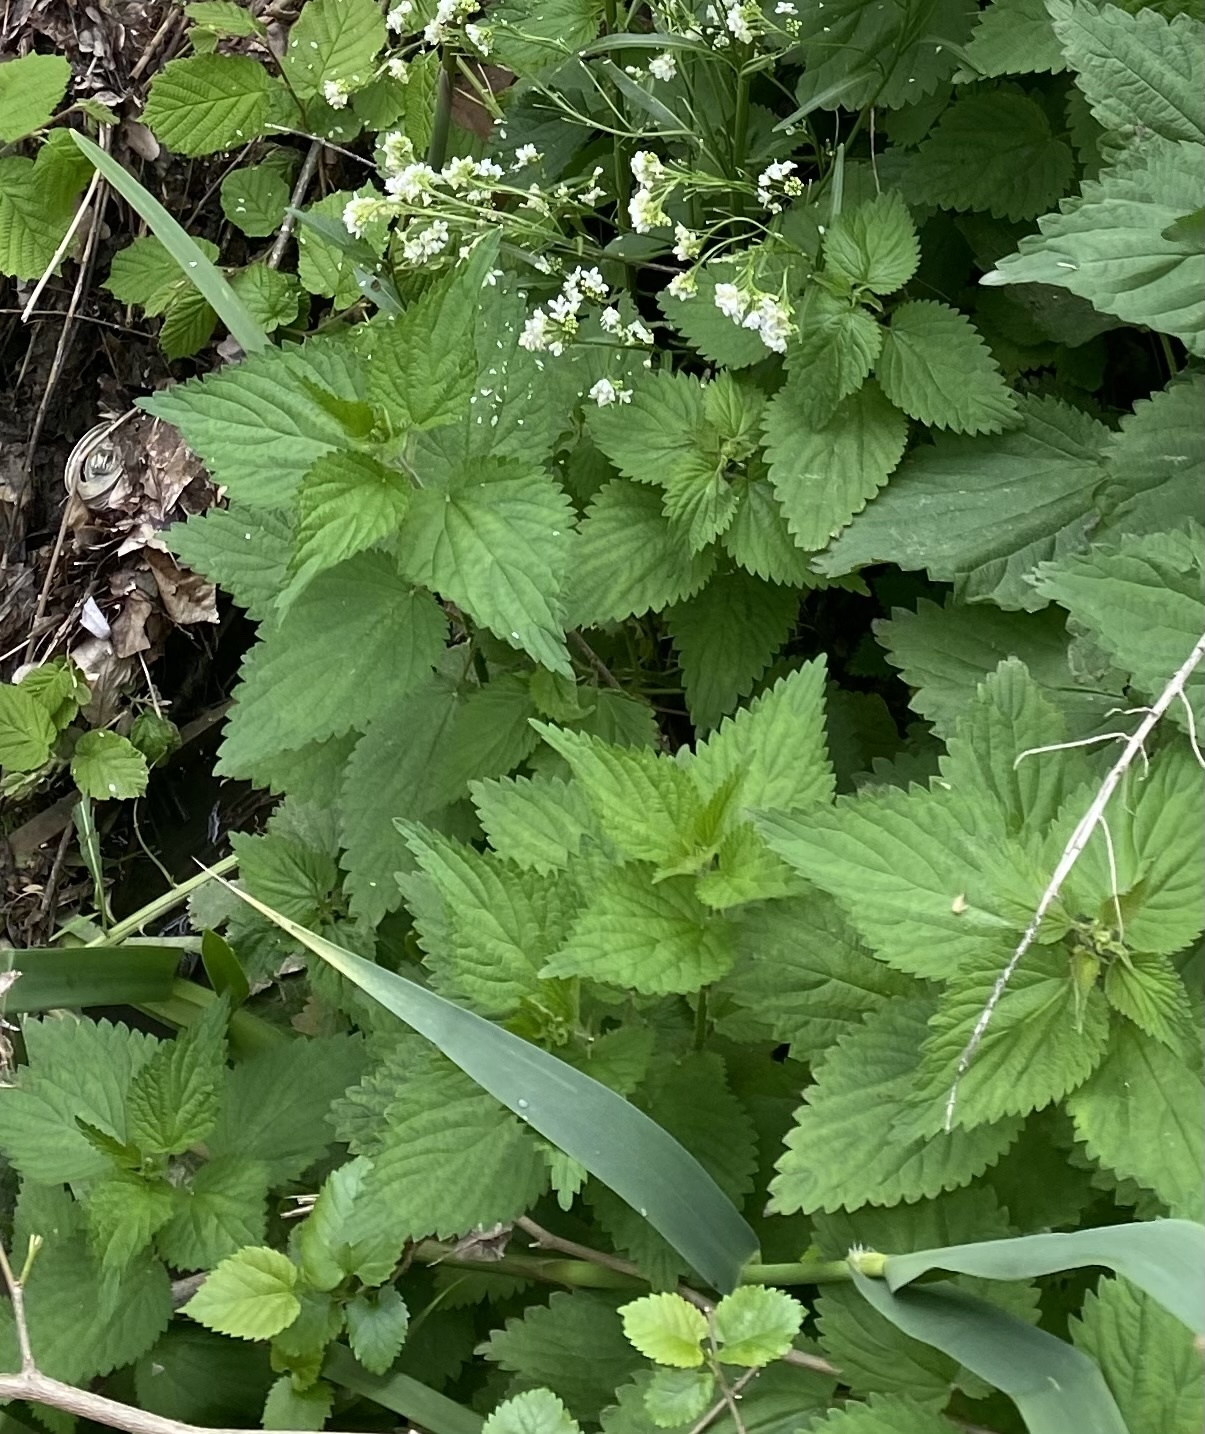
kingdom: Plantae
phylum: Tracheophyta
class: Magnoliopsida
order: Rosales
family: Urticaceae
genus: Urtica
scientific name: Urtica dioica
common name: Common nettle
